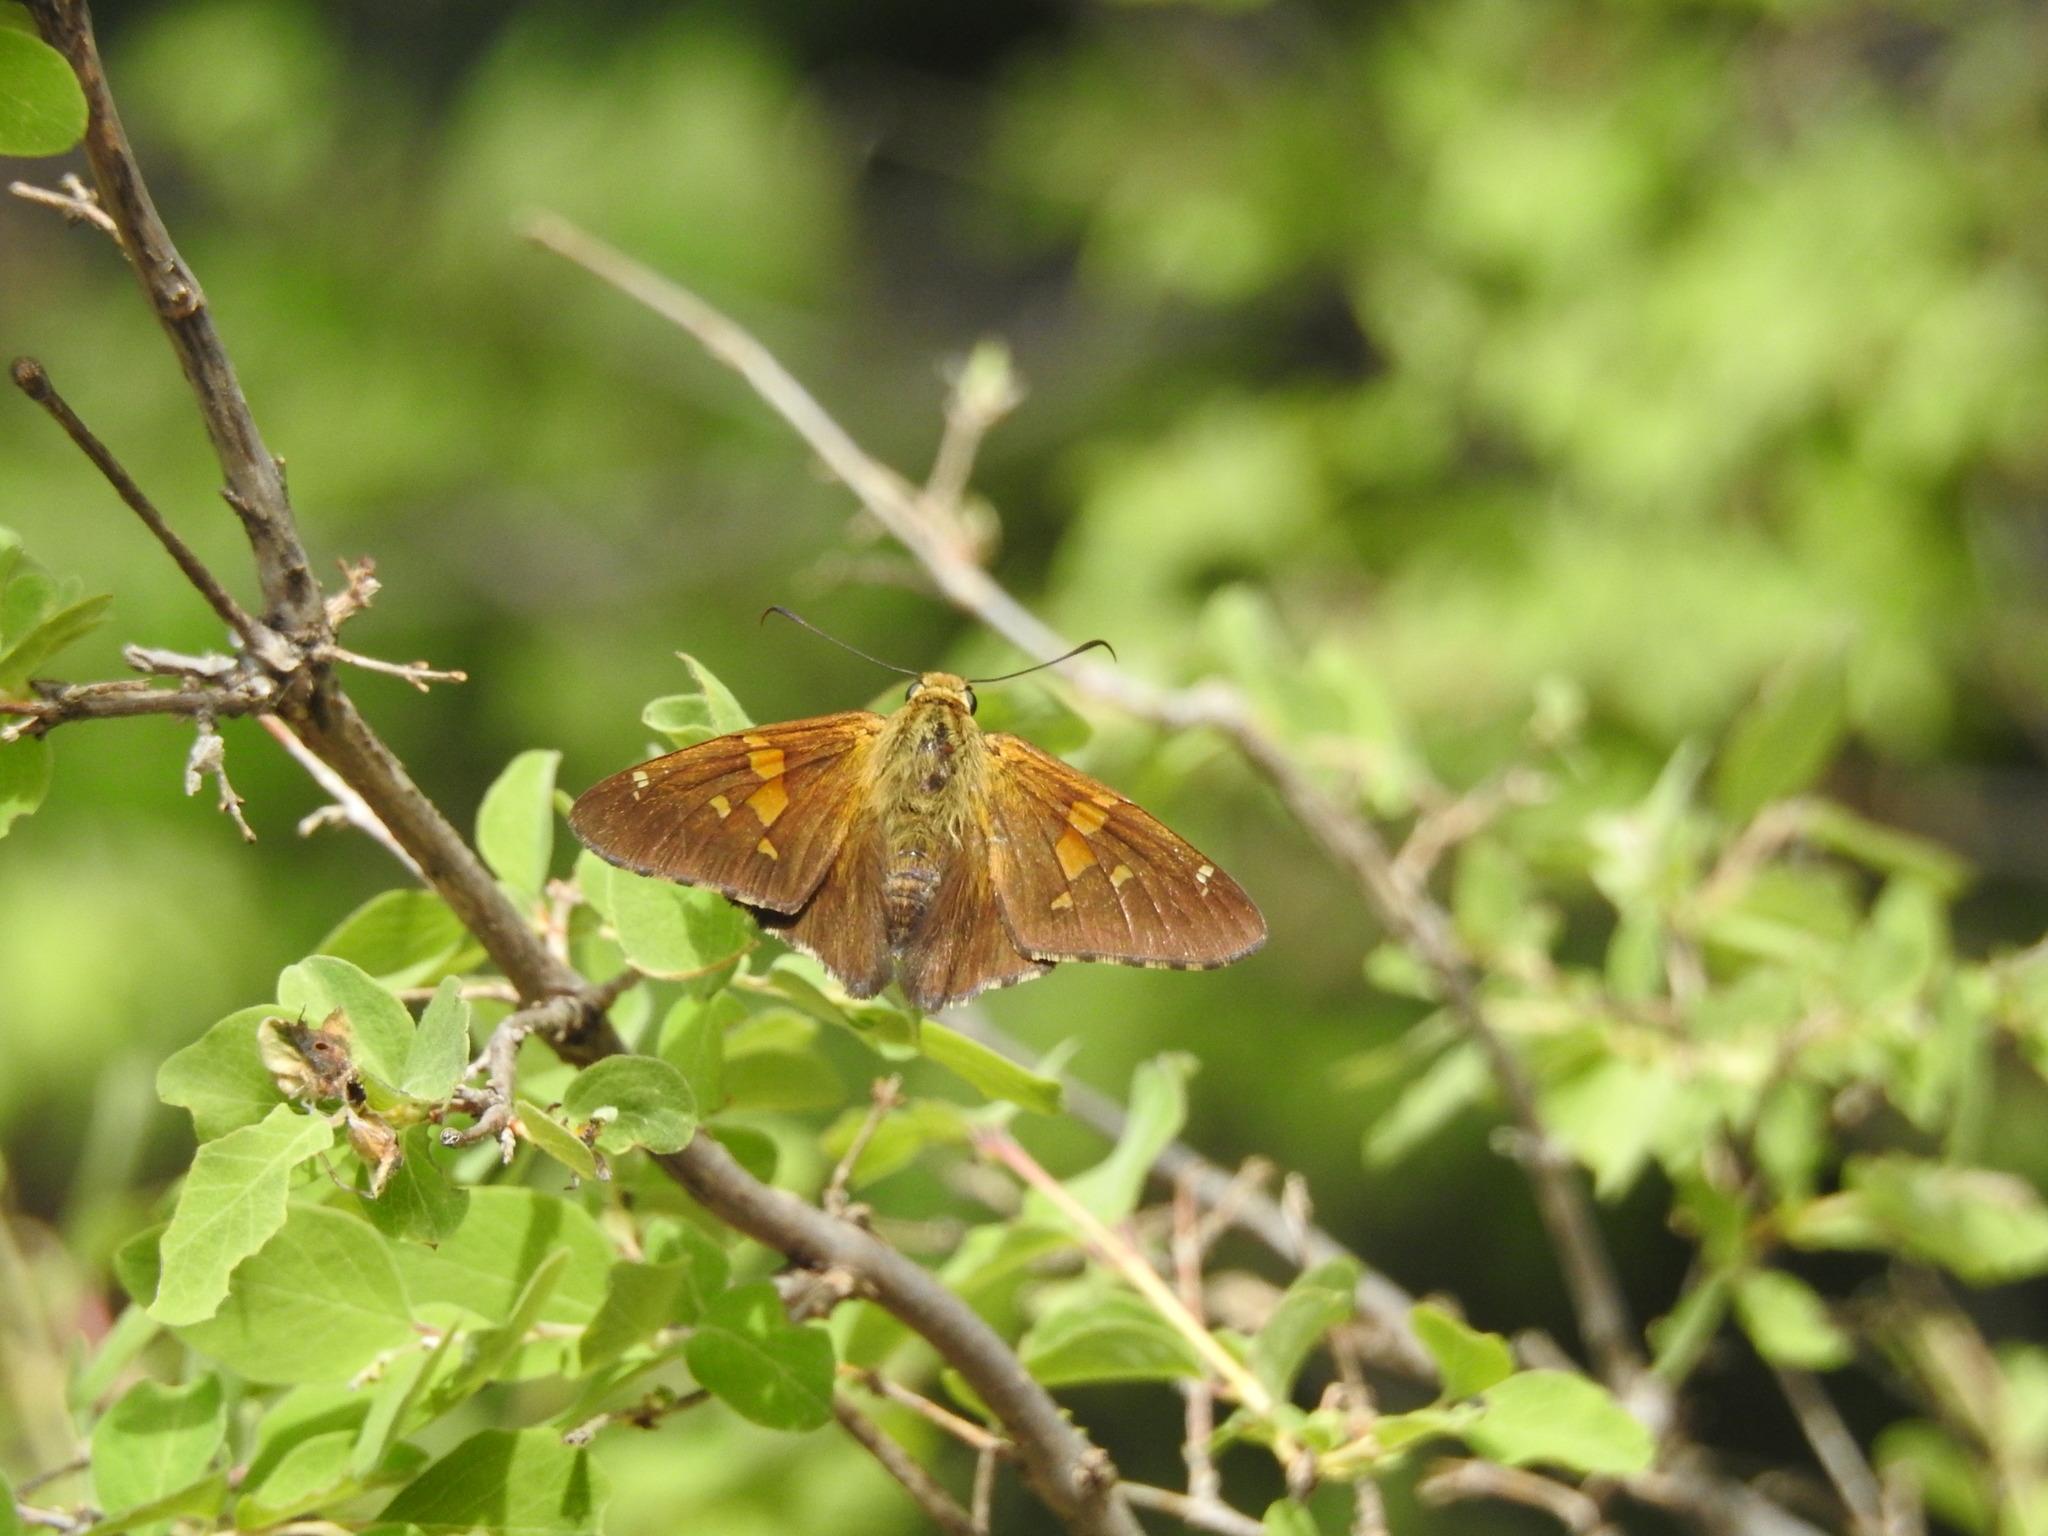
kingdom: Animalia
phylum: Arthropoda
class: Insecta
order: Lepidoptera
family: Hesperiidae
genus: Epargyreus
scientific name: Epargyreus clarus
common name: Silver-spotted skipper
